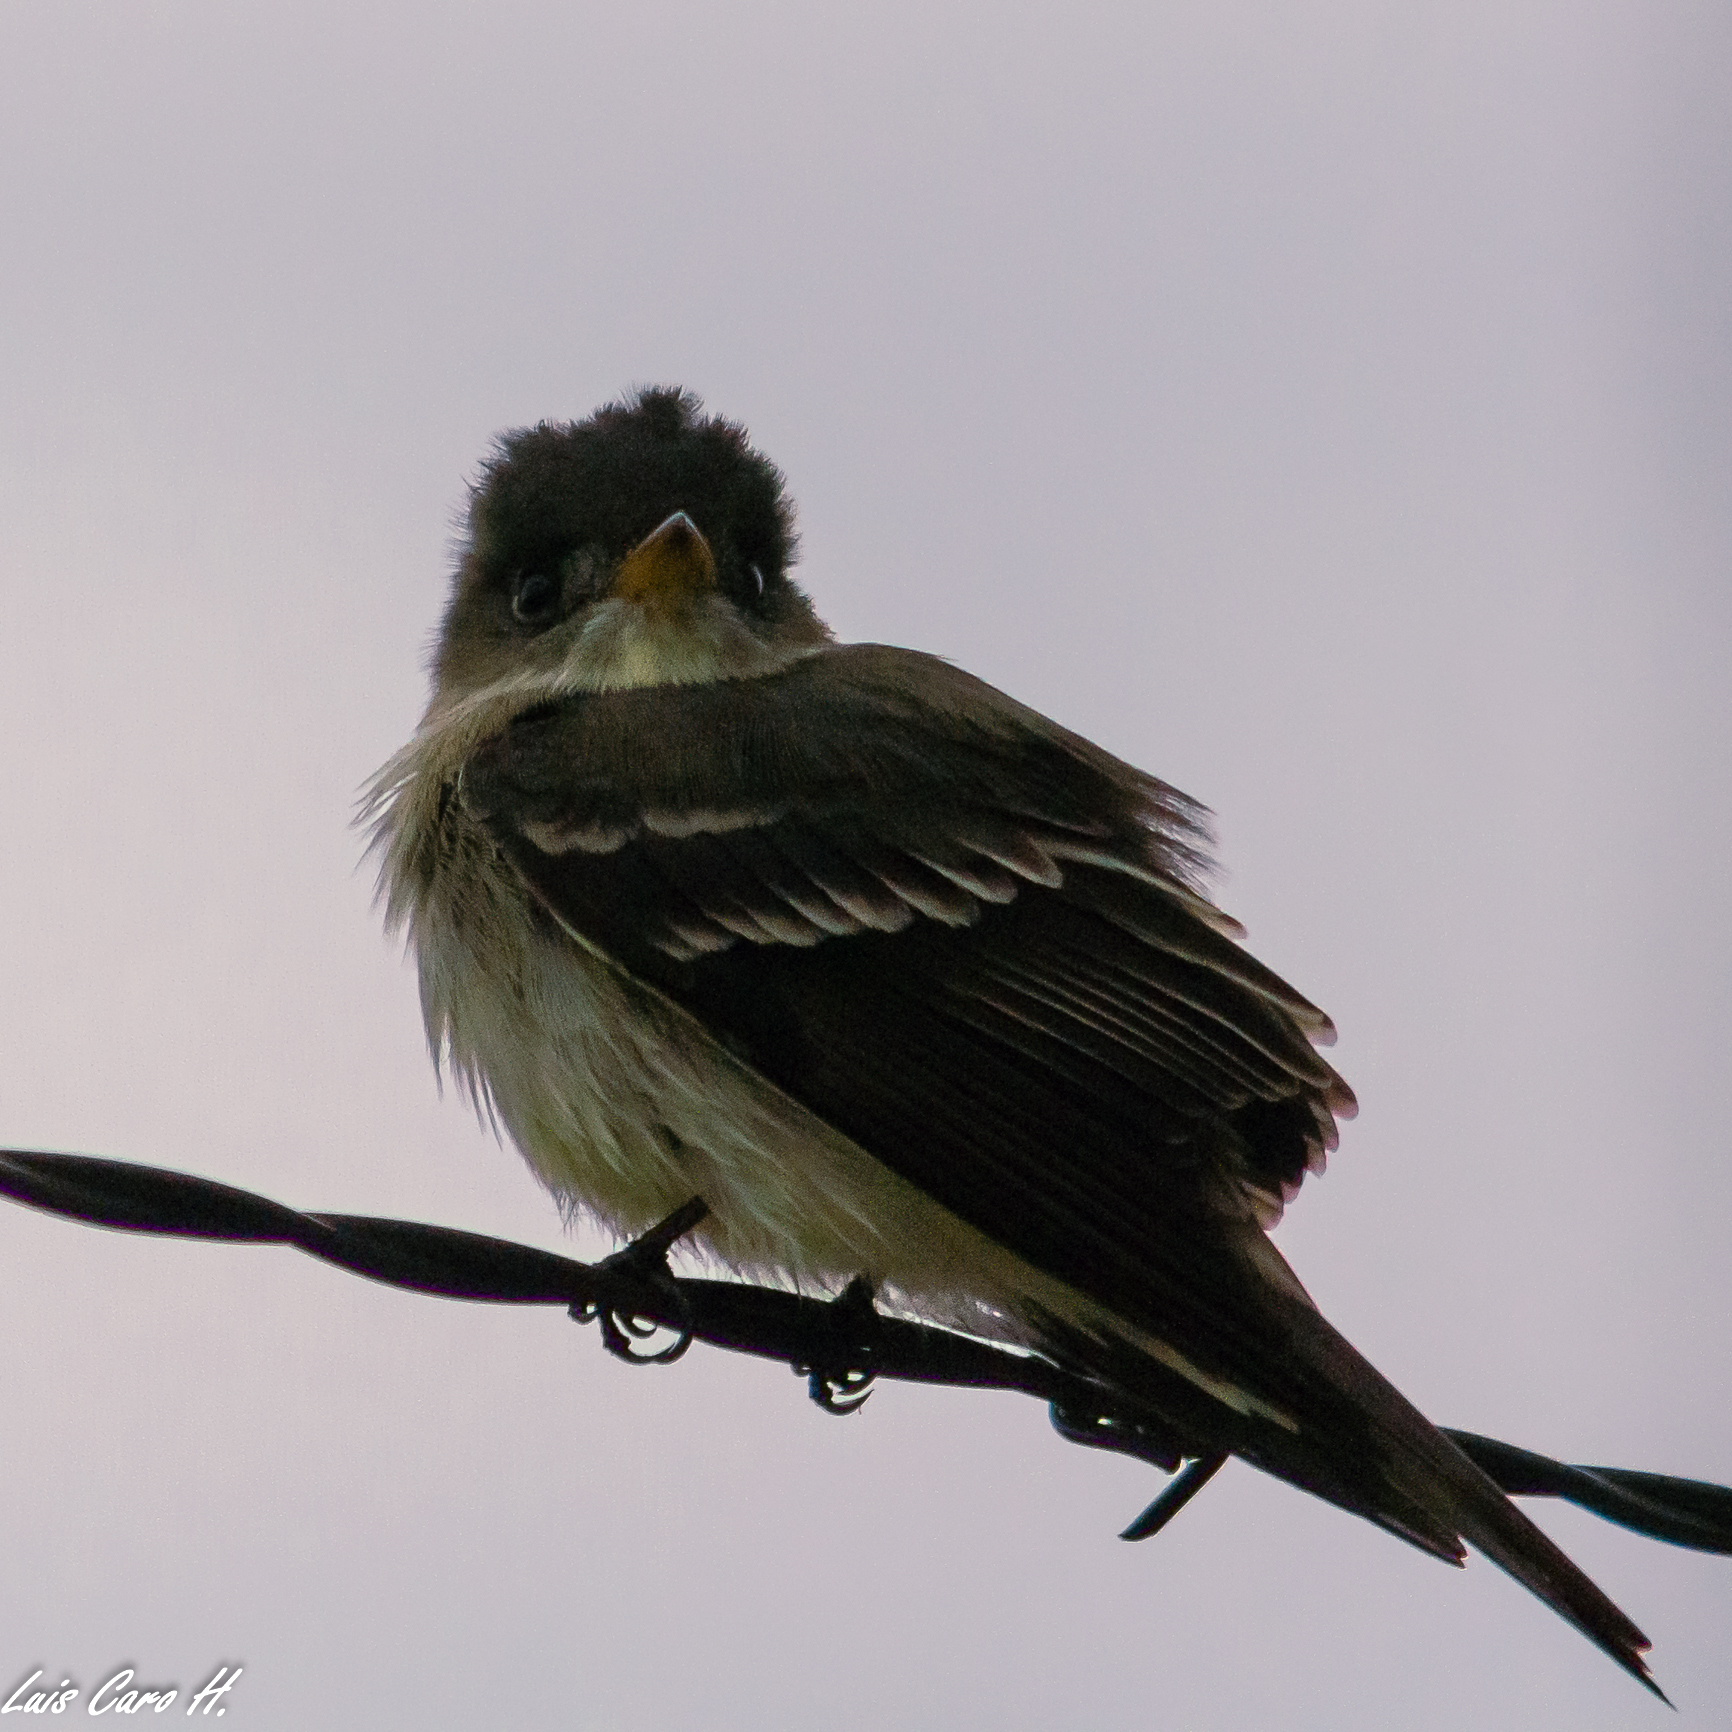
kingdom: Animalia
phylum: Chordata
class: Aves
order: Passeriformes
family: Tyrannidae
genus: Contopus
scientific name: Contopus virens
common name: Eastern wood-pewee
